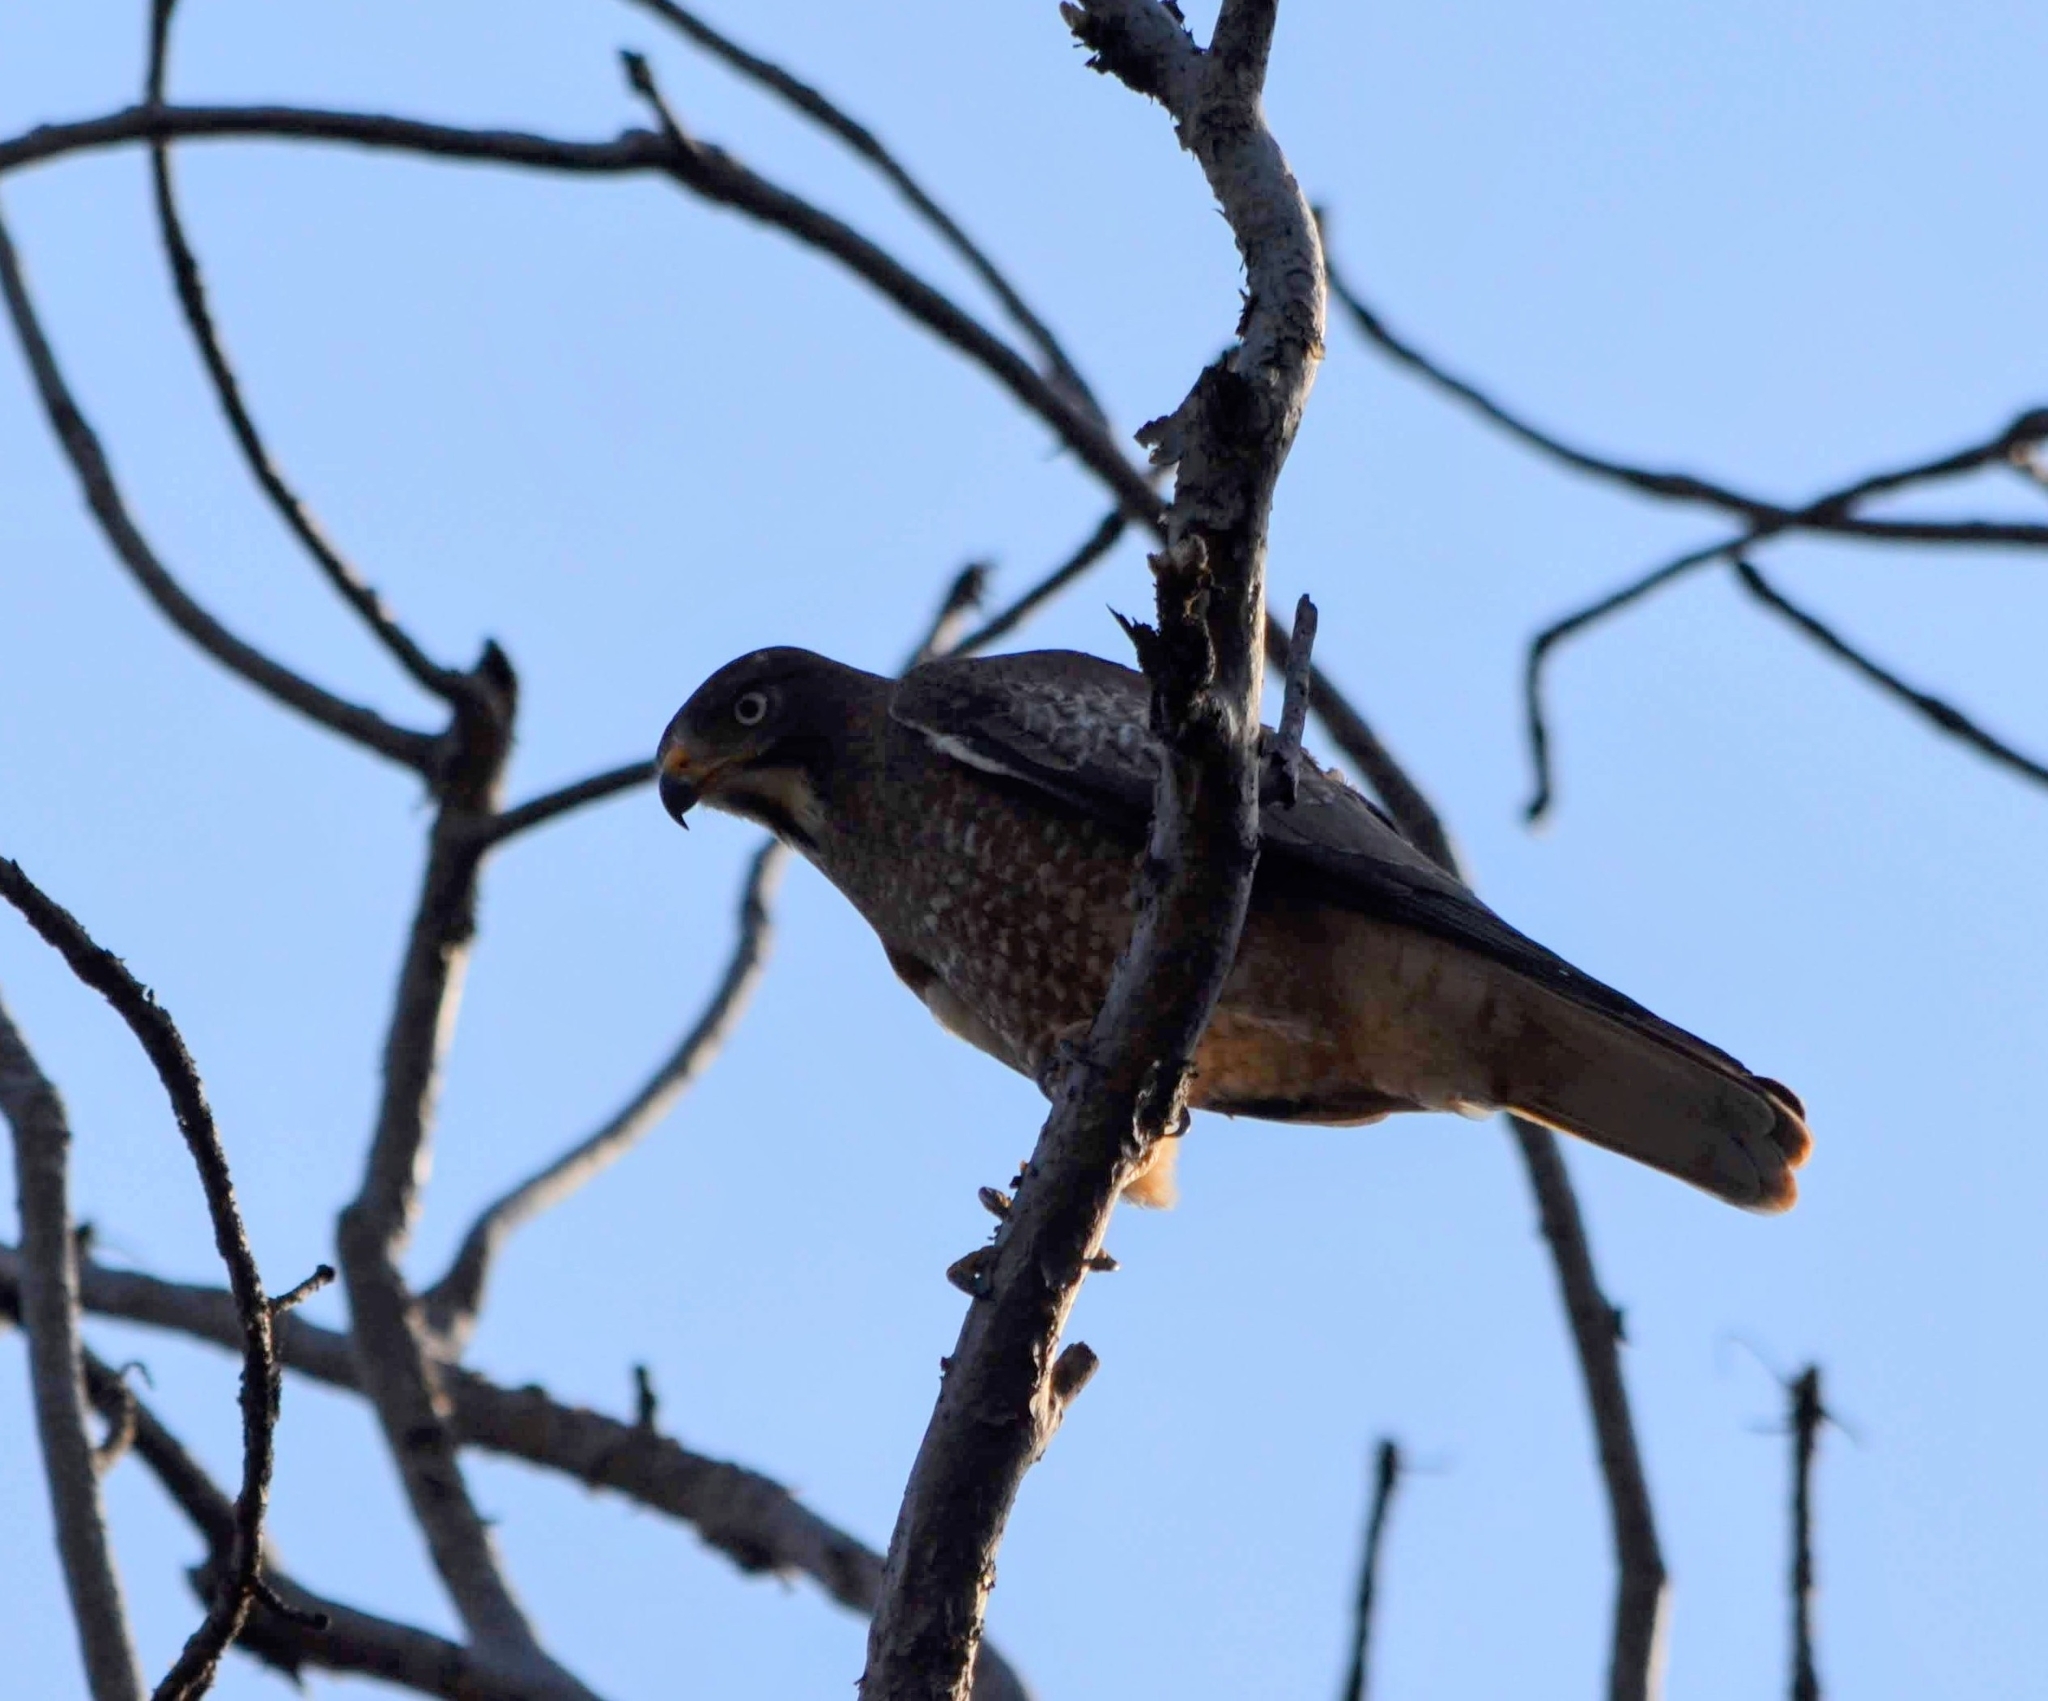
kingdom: Animalia
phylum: Chordata
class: Aves
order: Accipitriformes
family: Accipitridae
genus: Butastur
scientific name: Butastur teesa
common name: White-eyed buzzard
